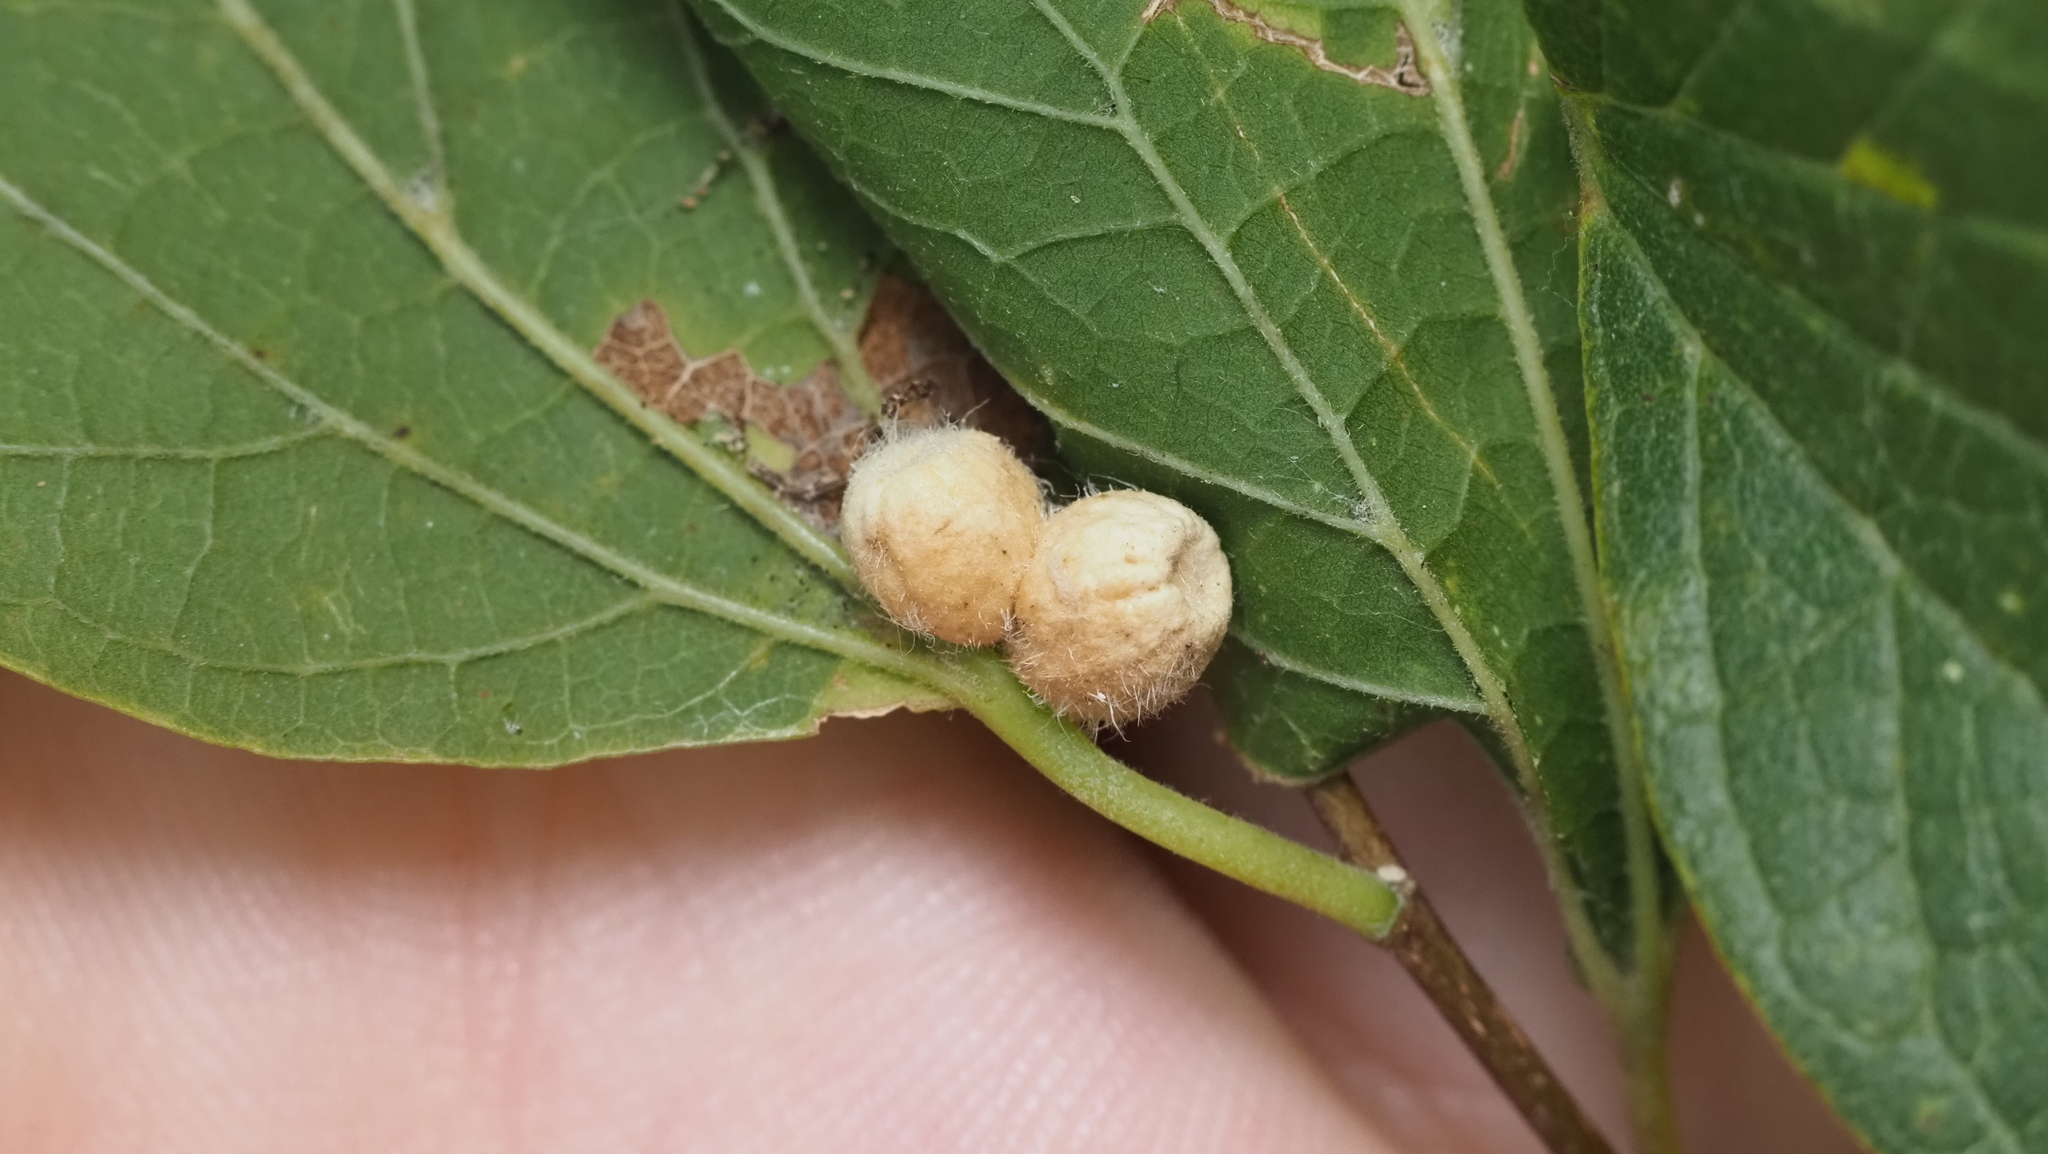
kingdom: Animalia
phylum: Arthropoda
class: Insecta
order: Diptera
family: Cecidomyiidae
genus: Celticecis
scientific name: Celticecis pubescens
